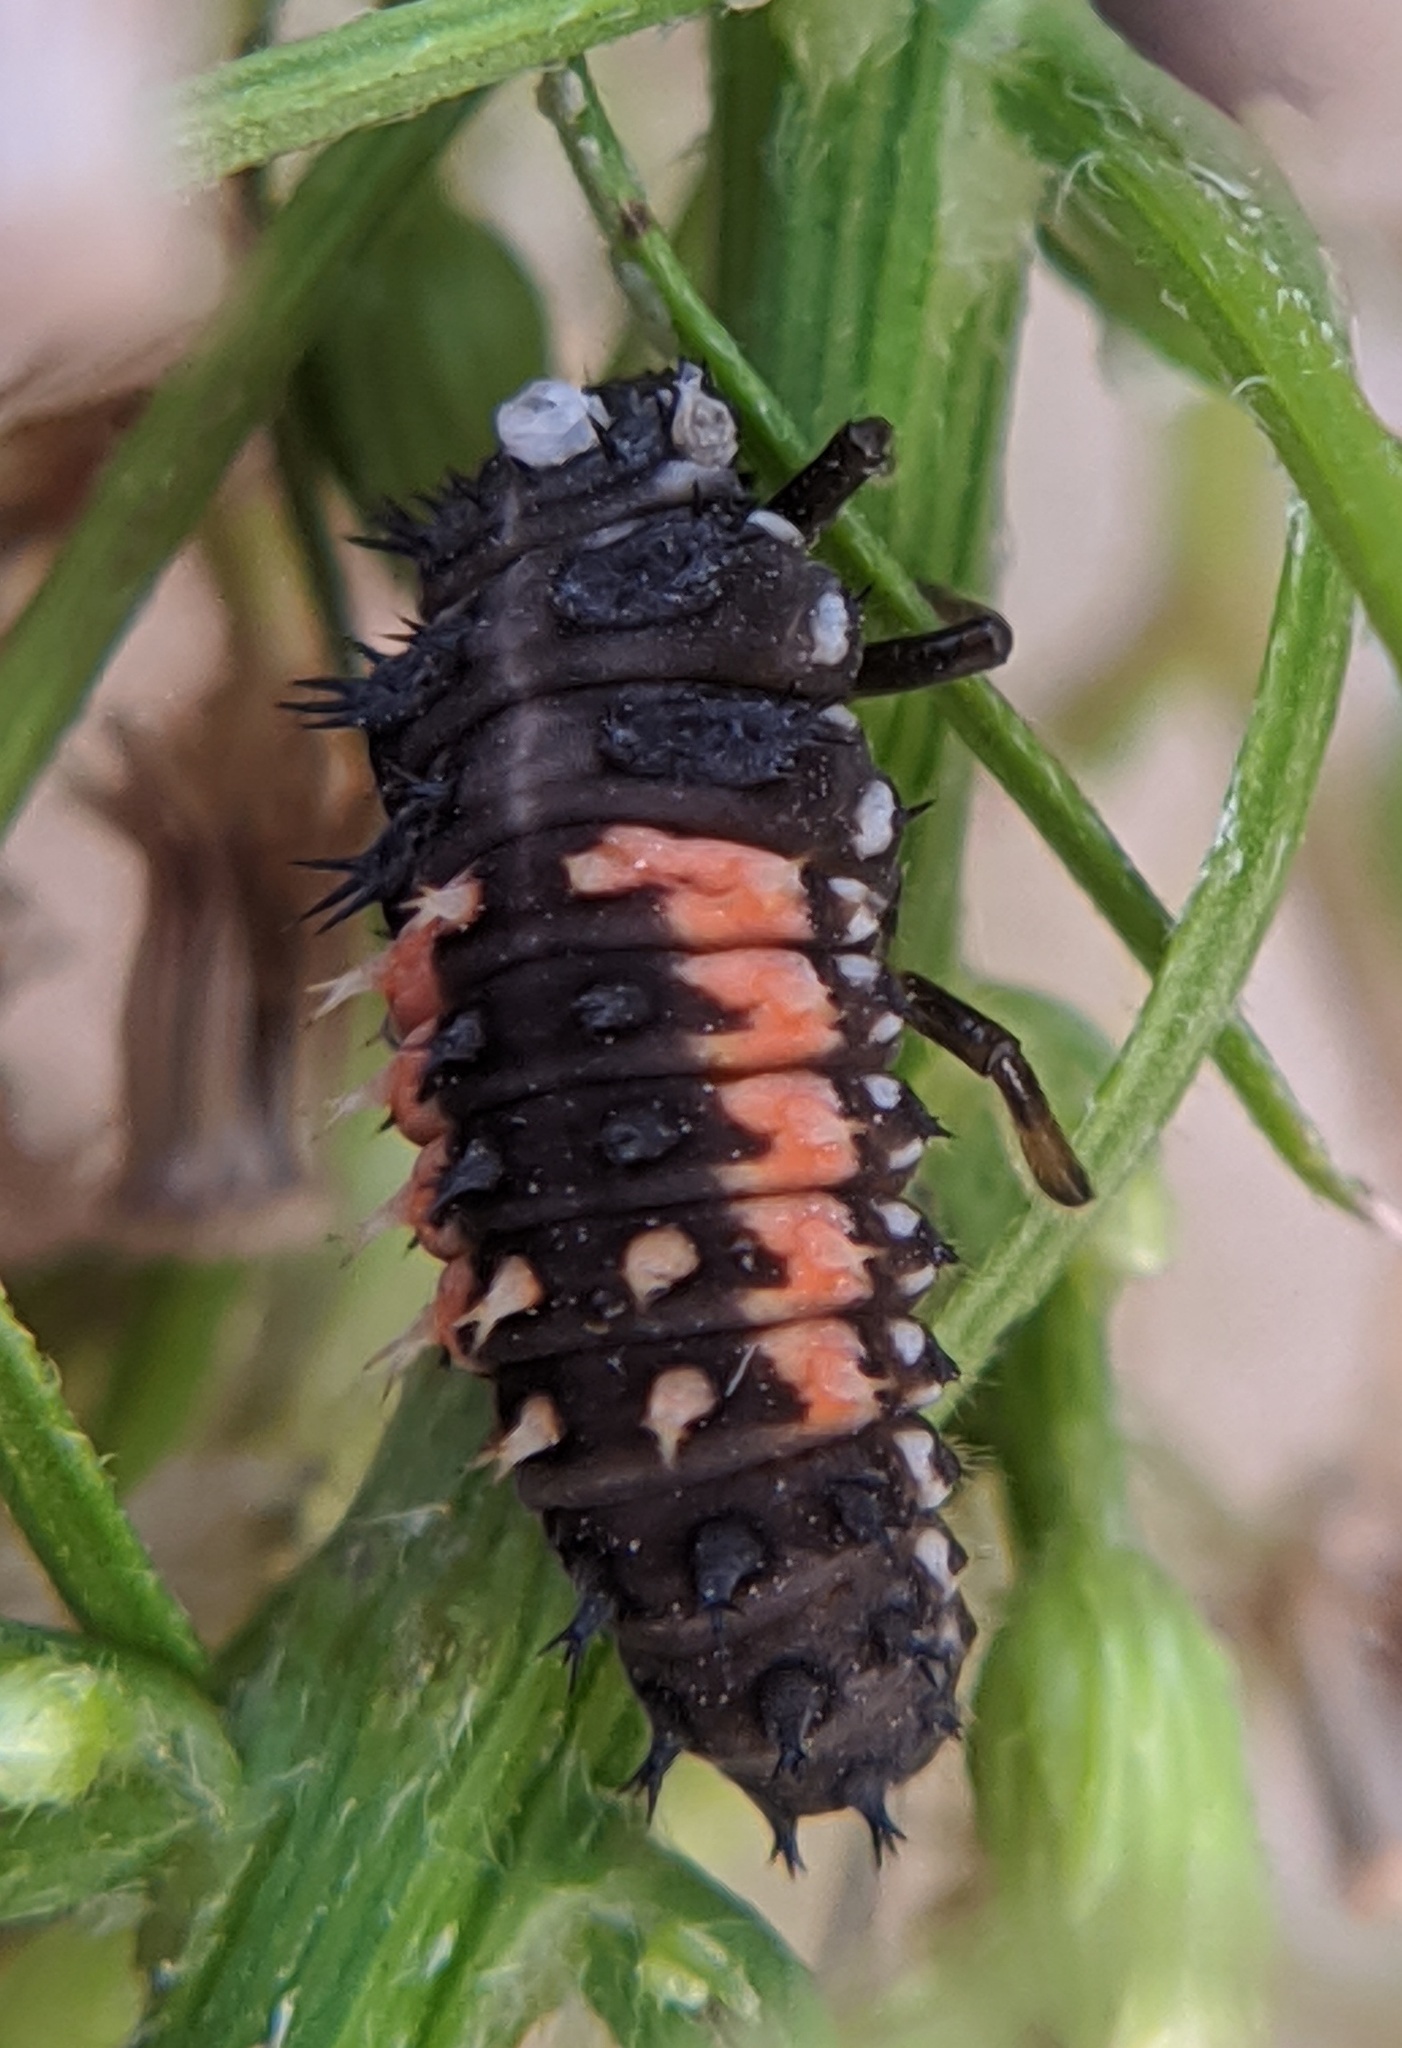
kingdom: Animalia
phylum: Arthropoda
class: Insecta
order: Coleoptera
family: Coccinellidae
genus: Harmonia
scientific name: Harmonia axyridis
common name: Harlequin ladybird
